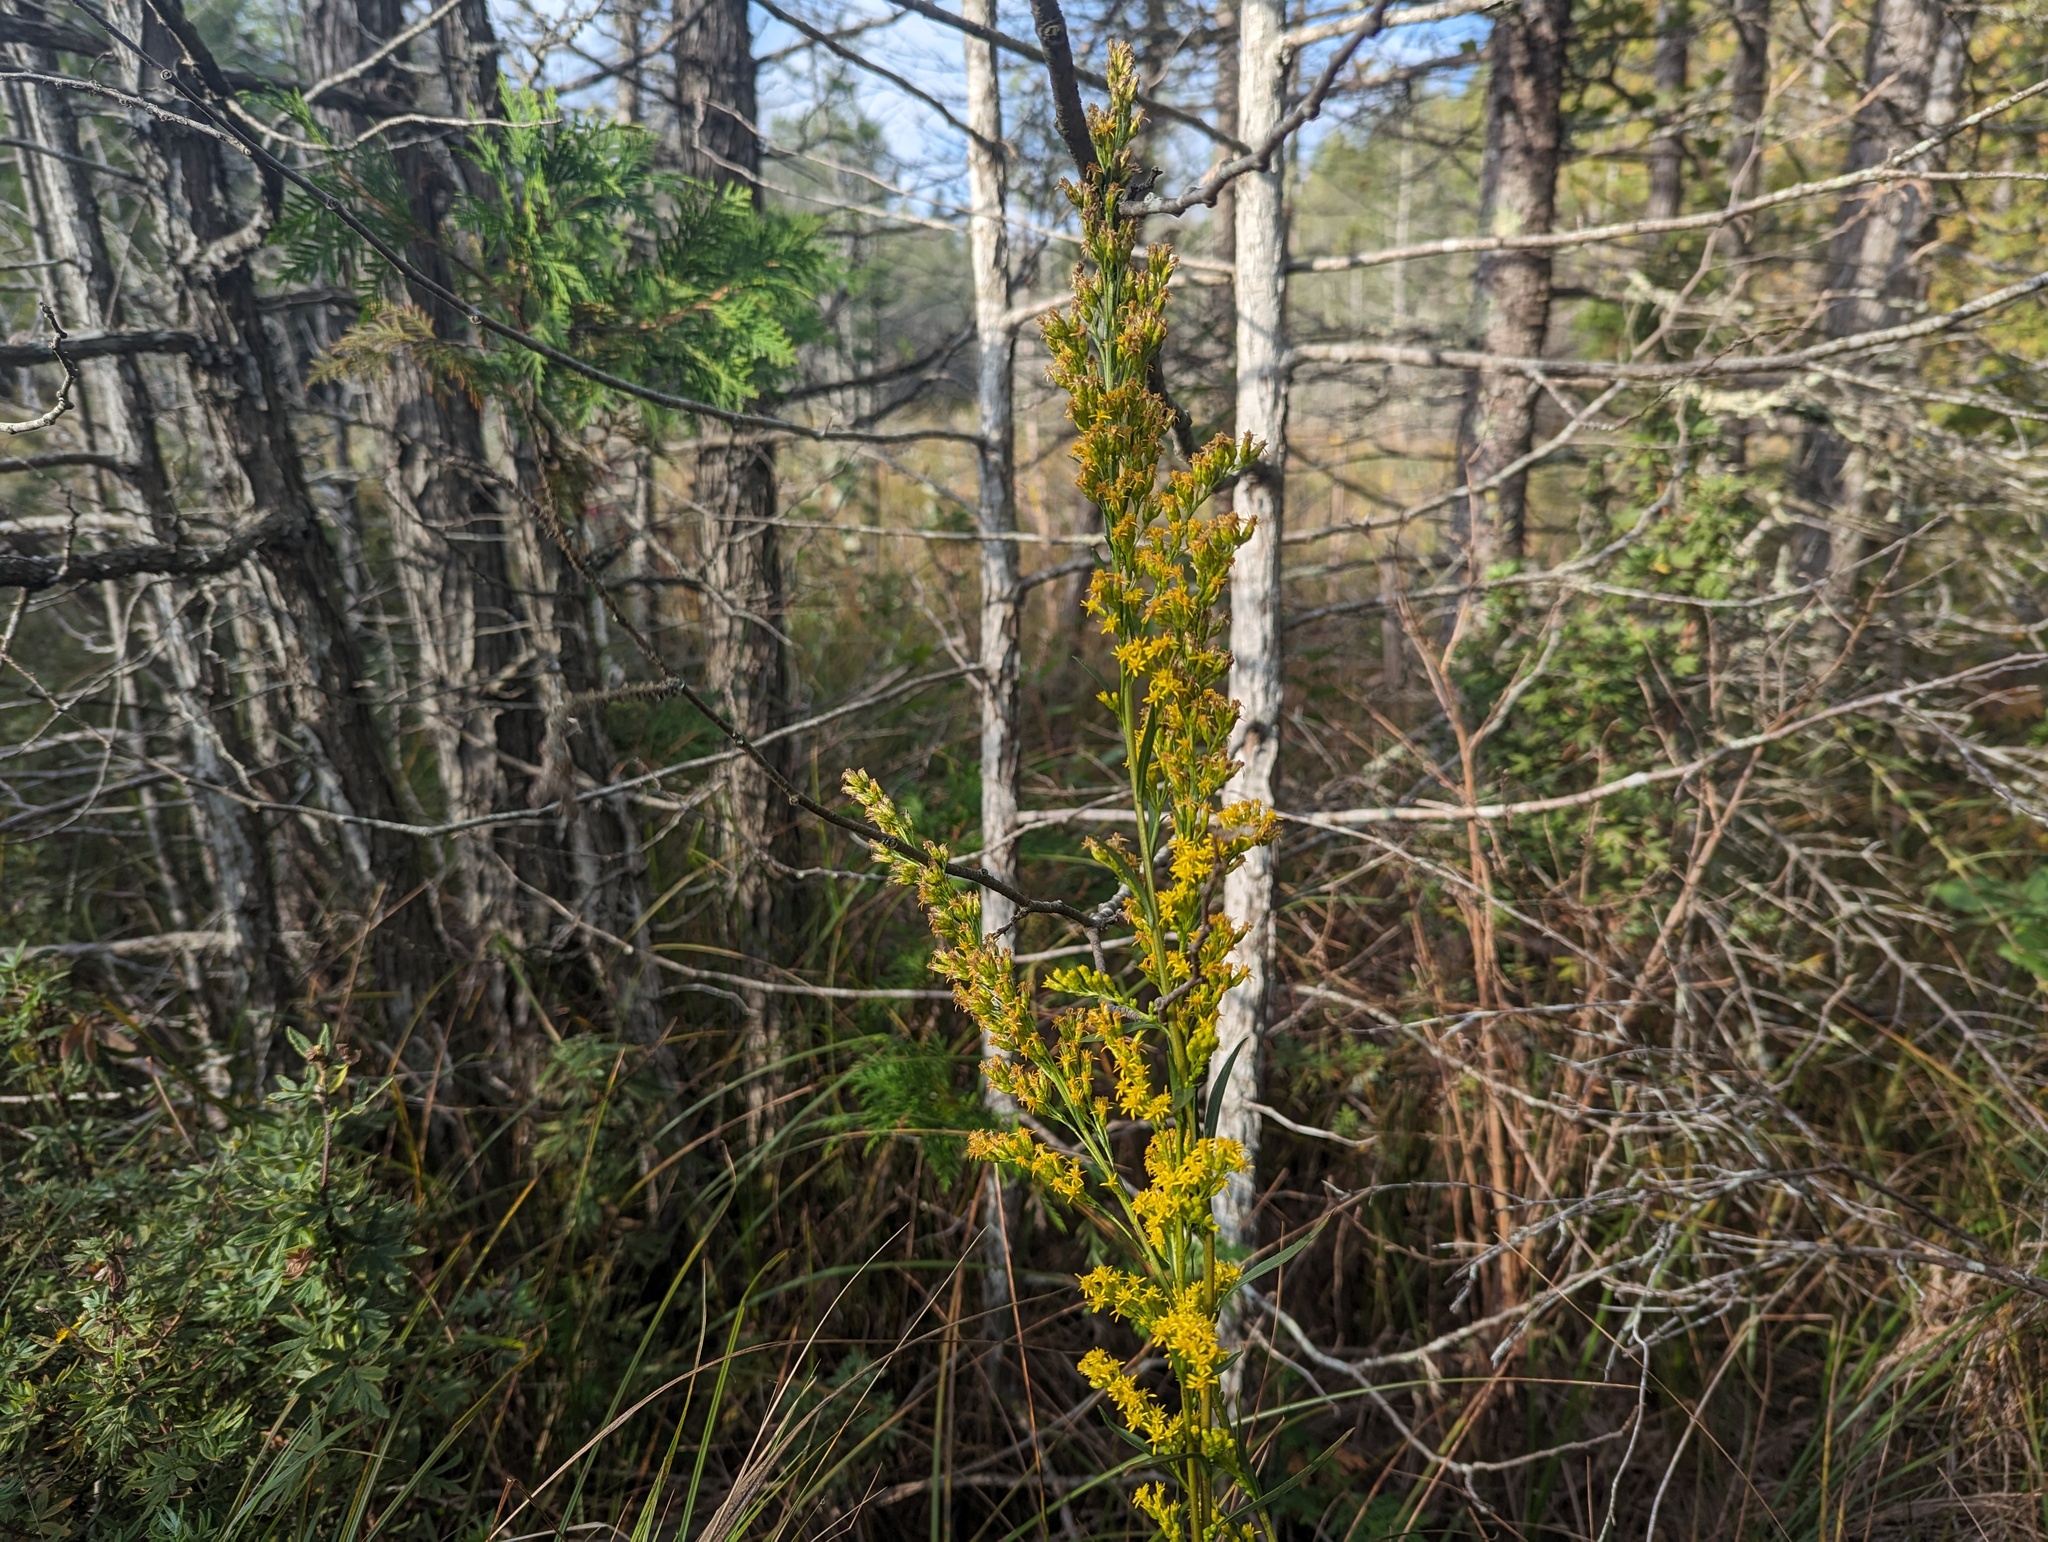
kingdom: Plantae
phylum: Tracheophyta
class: Magnoliopsida
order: Asterales
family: Asteraceae
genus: Solidago
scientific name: Solidago uliginosa
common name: Bog goldenrod
